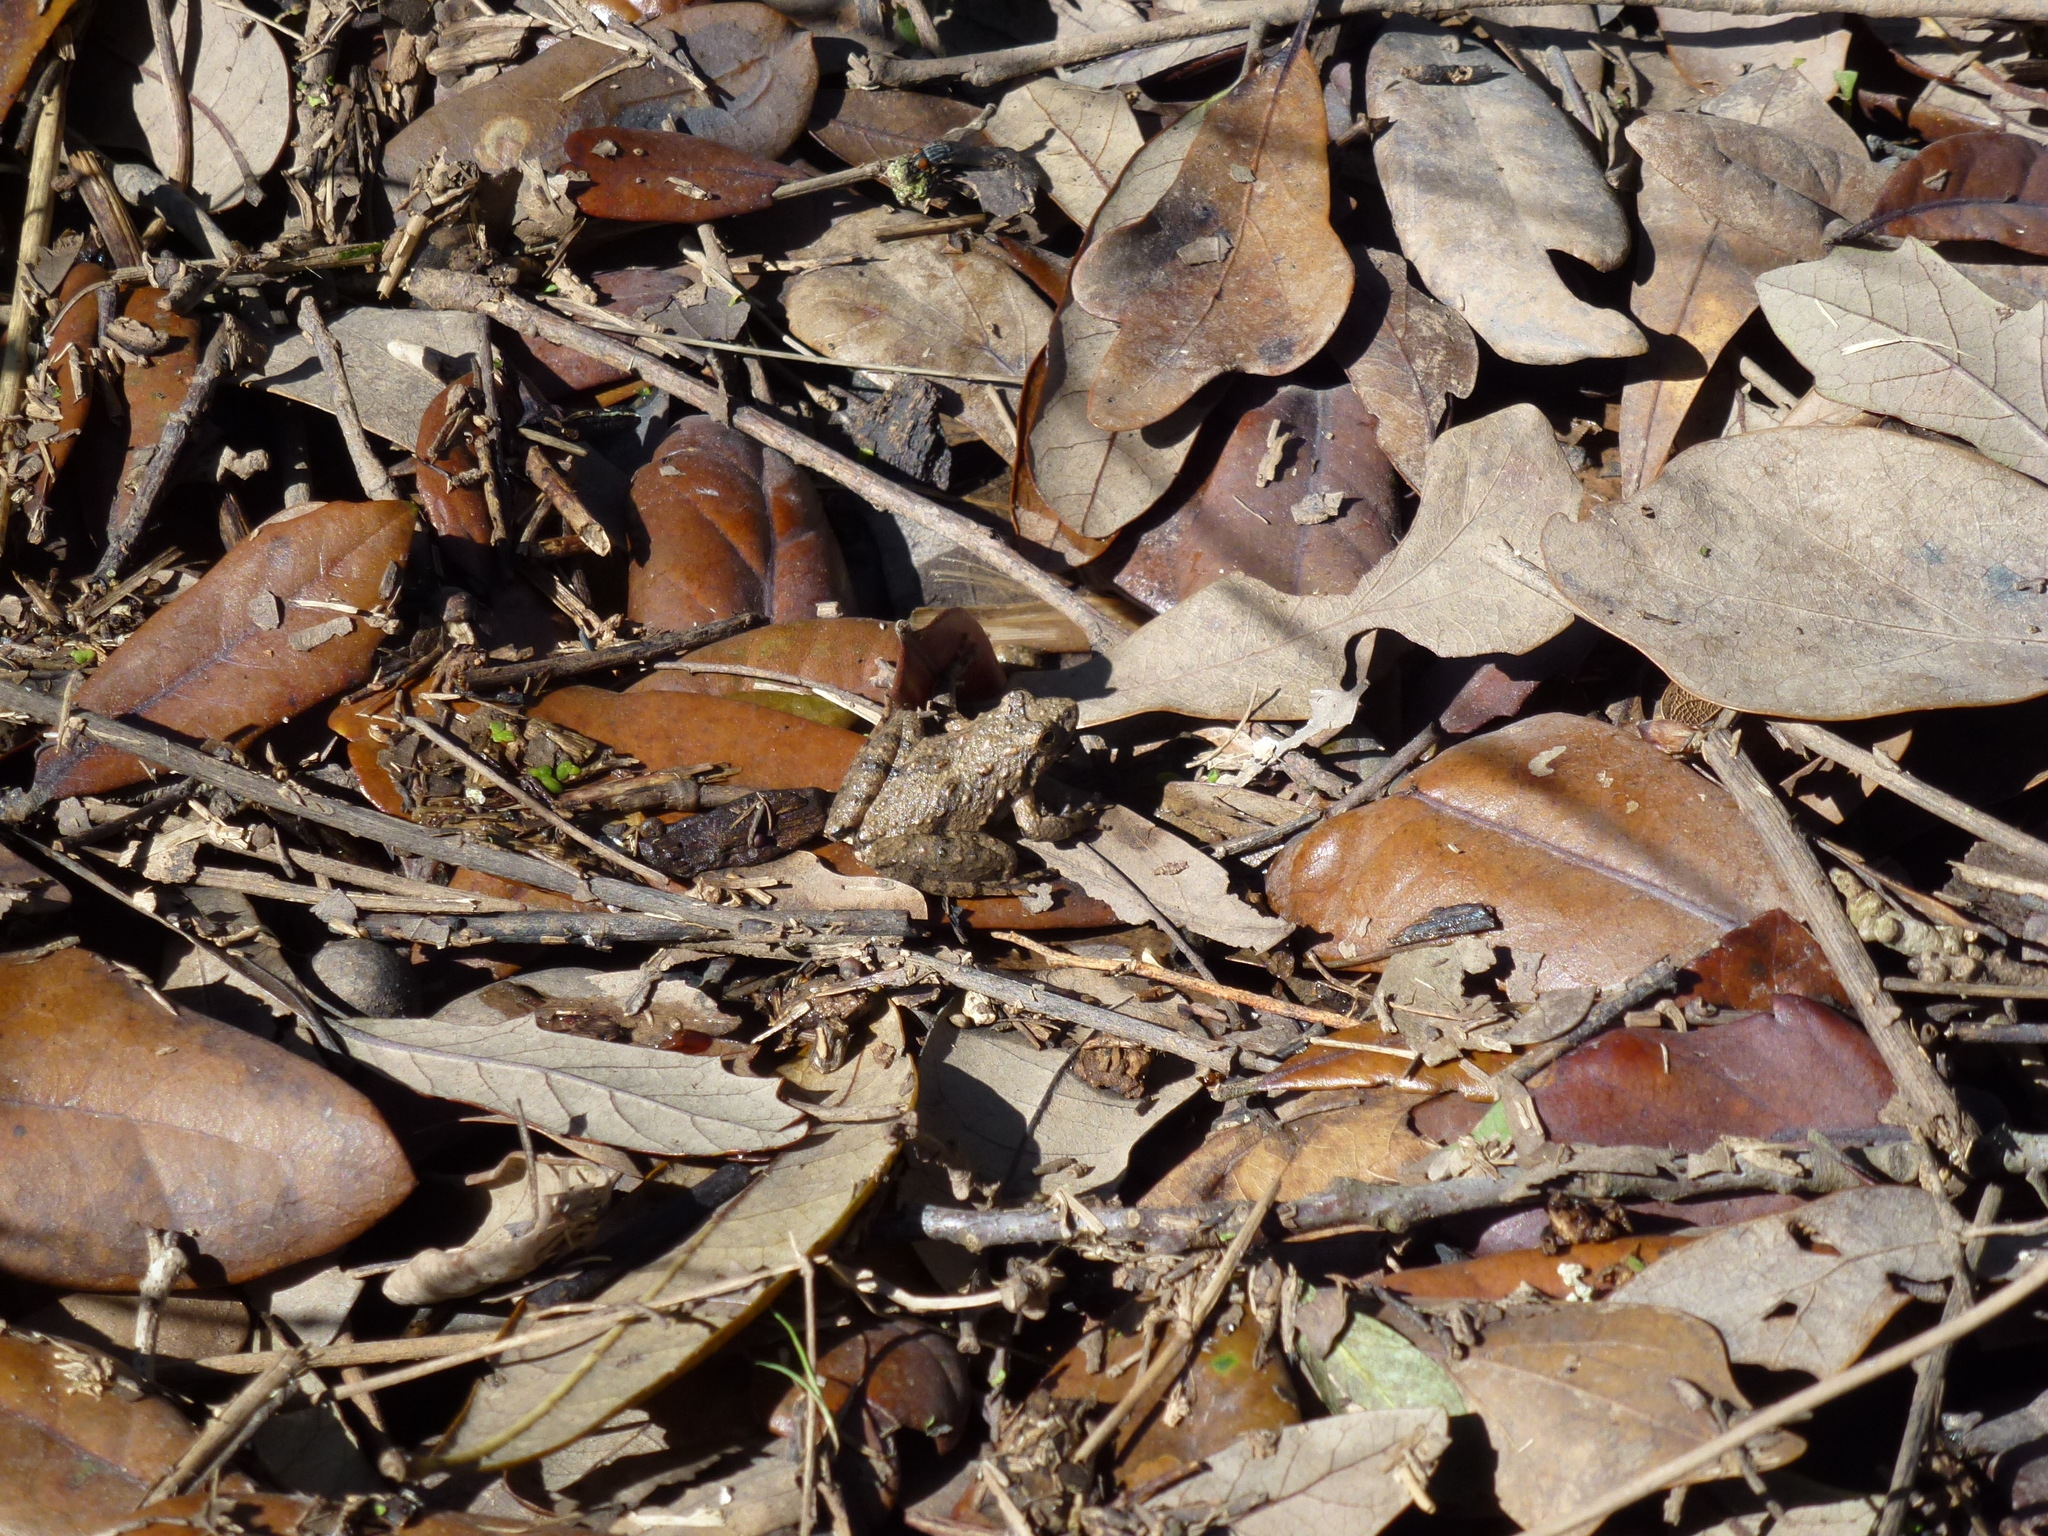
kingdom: Animalia
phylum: Chordata
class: Amphibia
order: Anura
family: Hylidae
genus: Acris
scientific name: Acris blanchardi
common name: Blanchard's cricket frog
